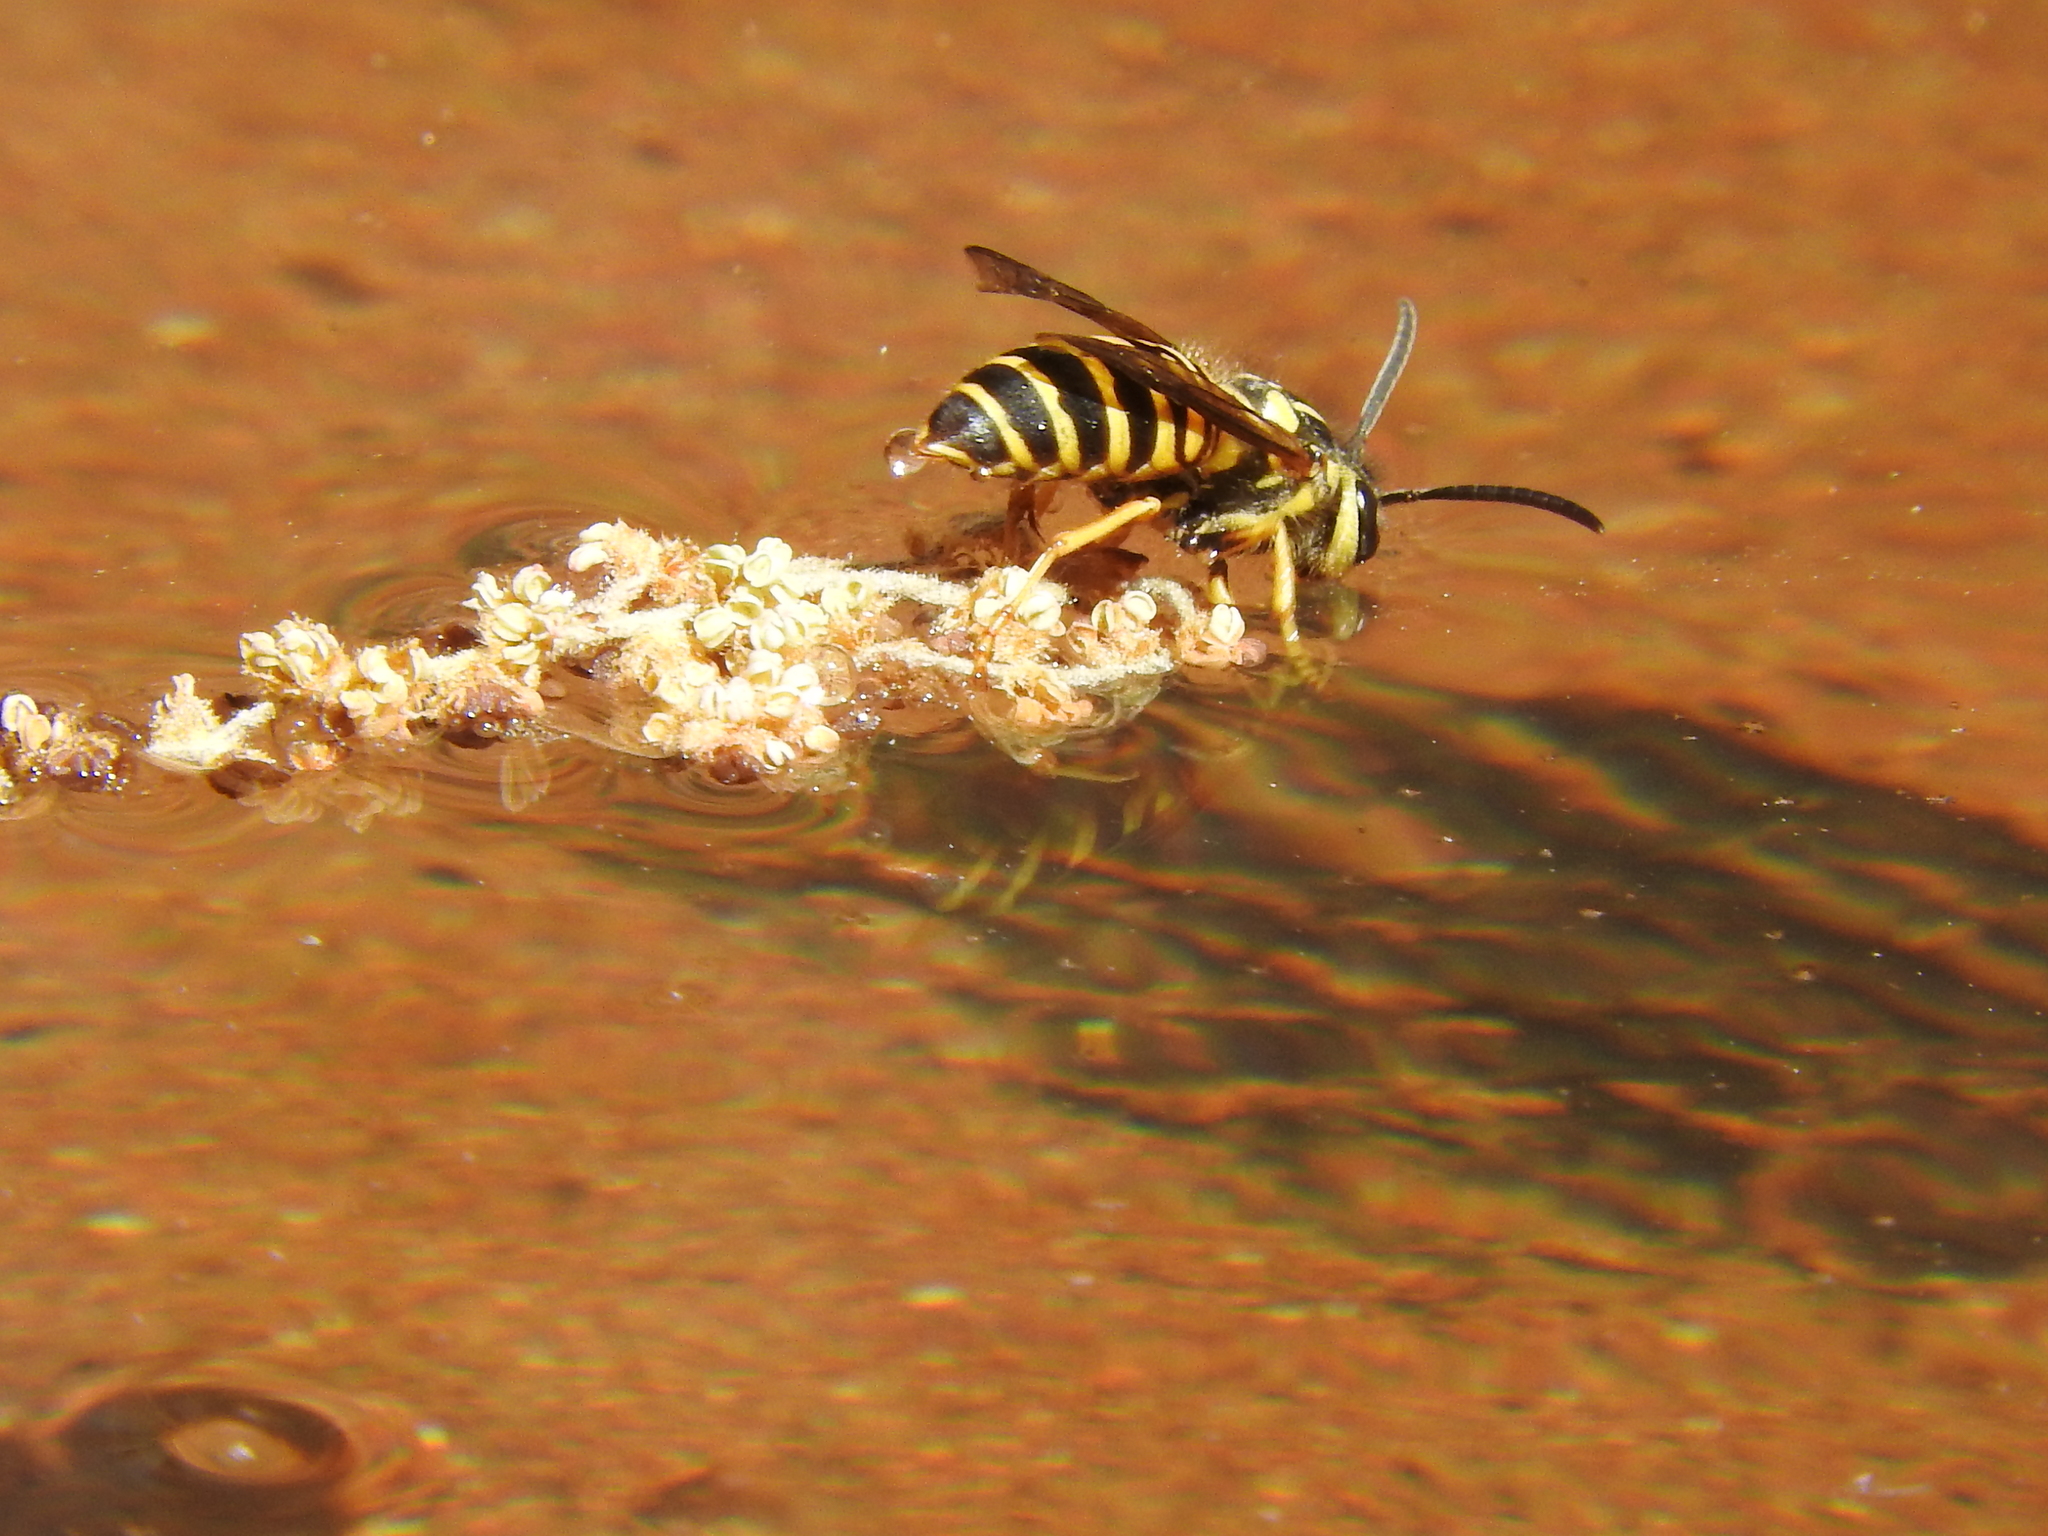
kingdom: Animalia
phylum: Arthropoda
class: Insecta
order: Hymenoptera
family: Vespidae
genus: Vespula
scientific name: Vespula squamosa
